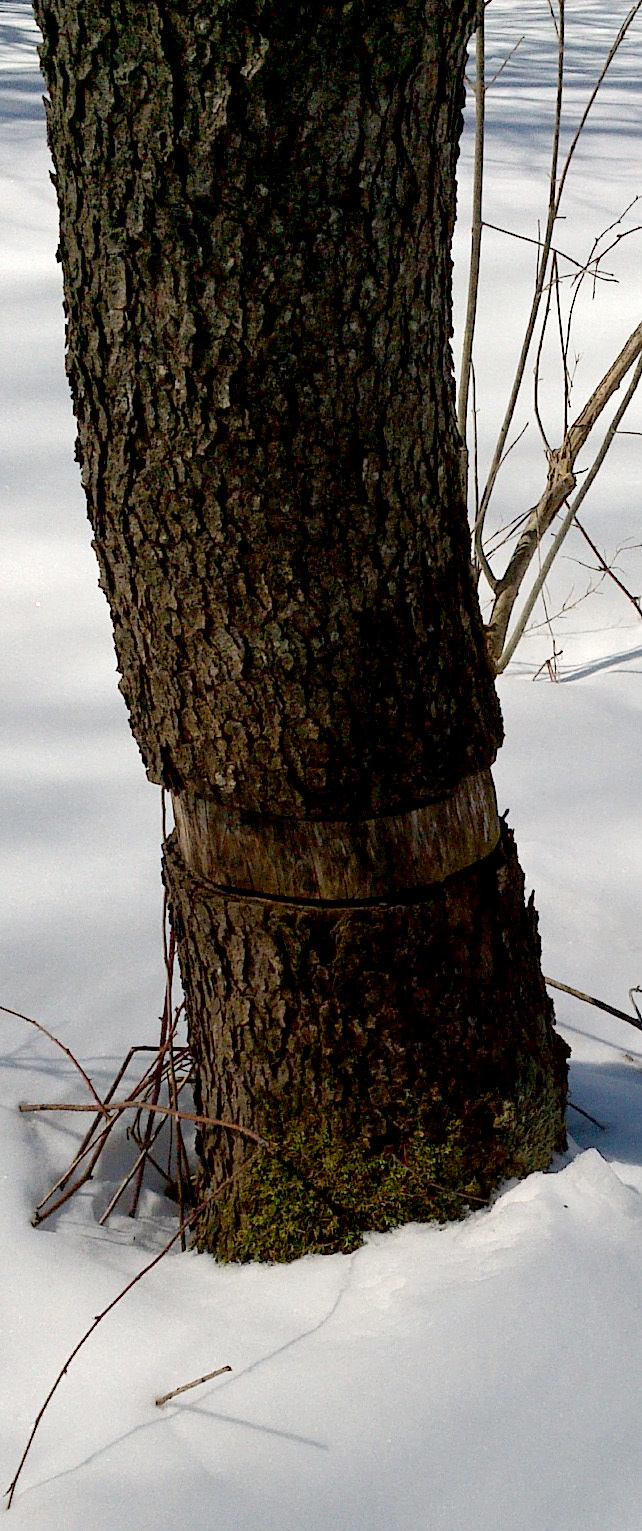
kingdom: Plantae
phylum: Tracheophyta
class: Magnoliopsida
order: Rosales
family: Rosaceae
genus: Prunus
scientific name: Prunus serotina
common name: Black cherry
